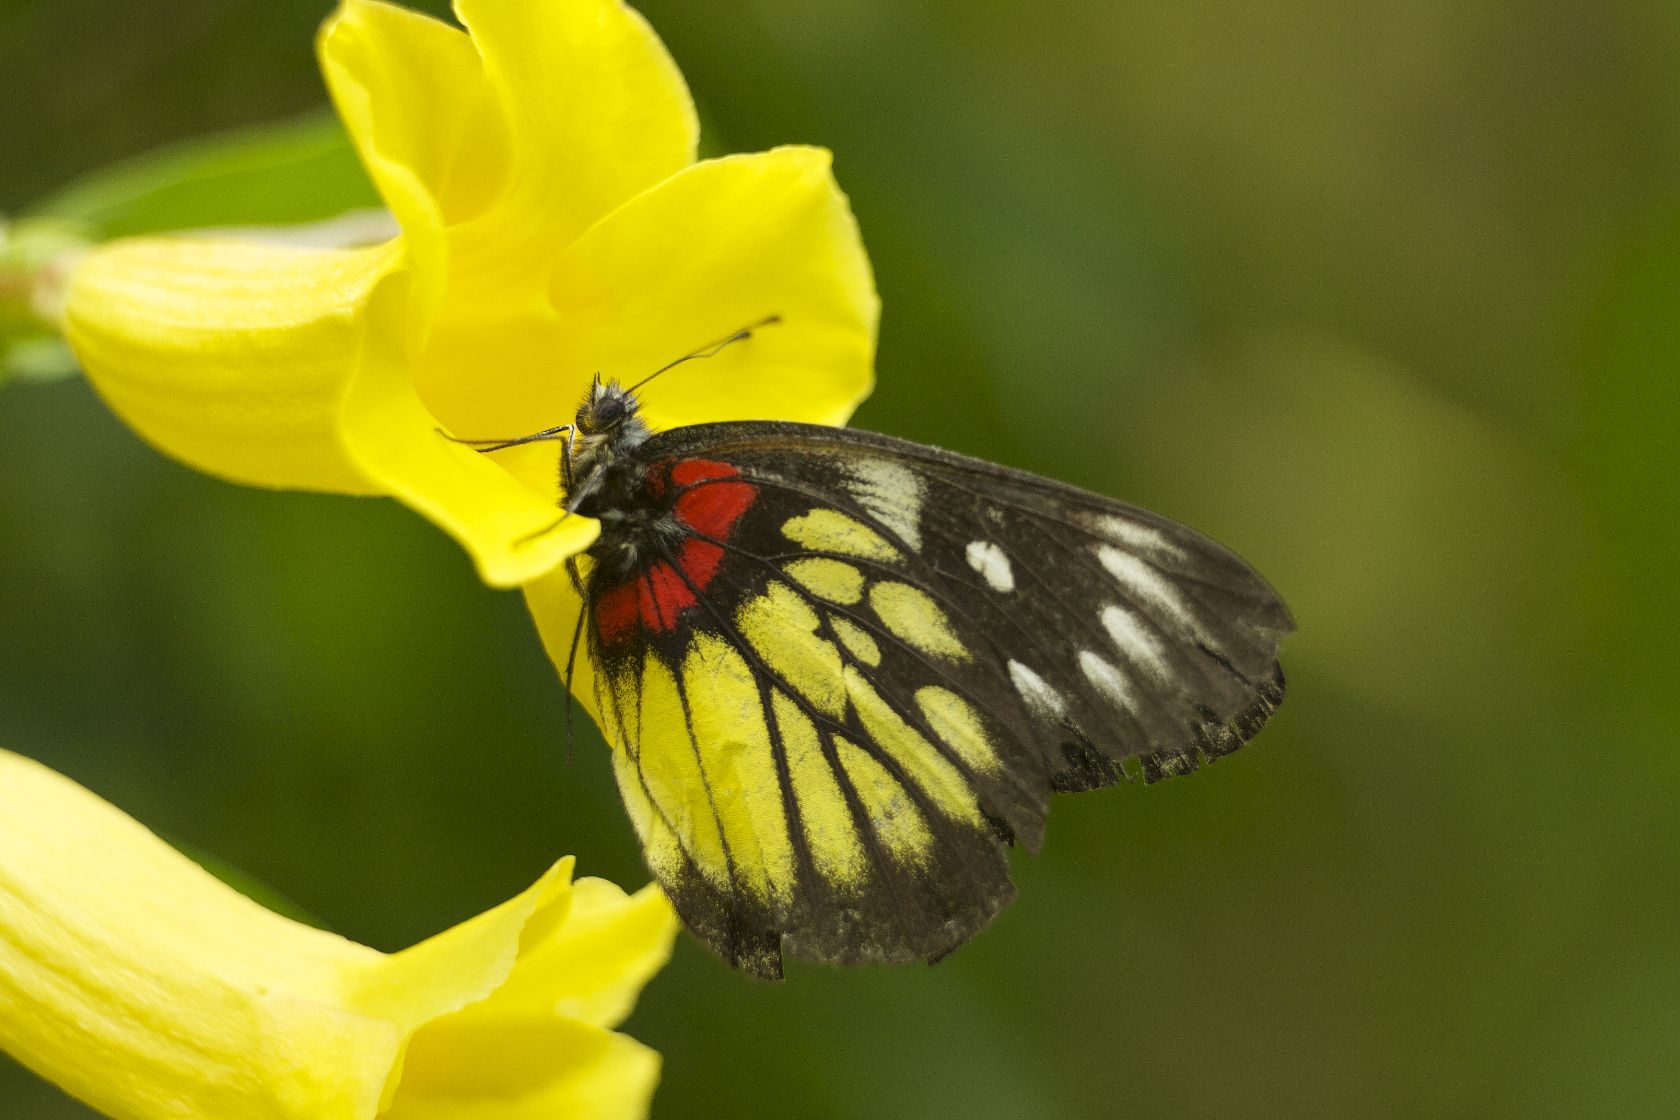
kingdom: Animalia
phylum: Arthropoda
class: Insecta
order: Lepidoptera
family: Pieridae
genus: Delias
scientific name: Delias pasithoe
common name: Red-base jezebel
